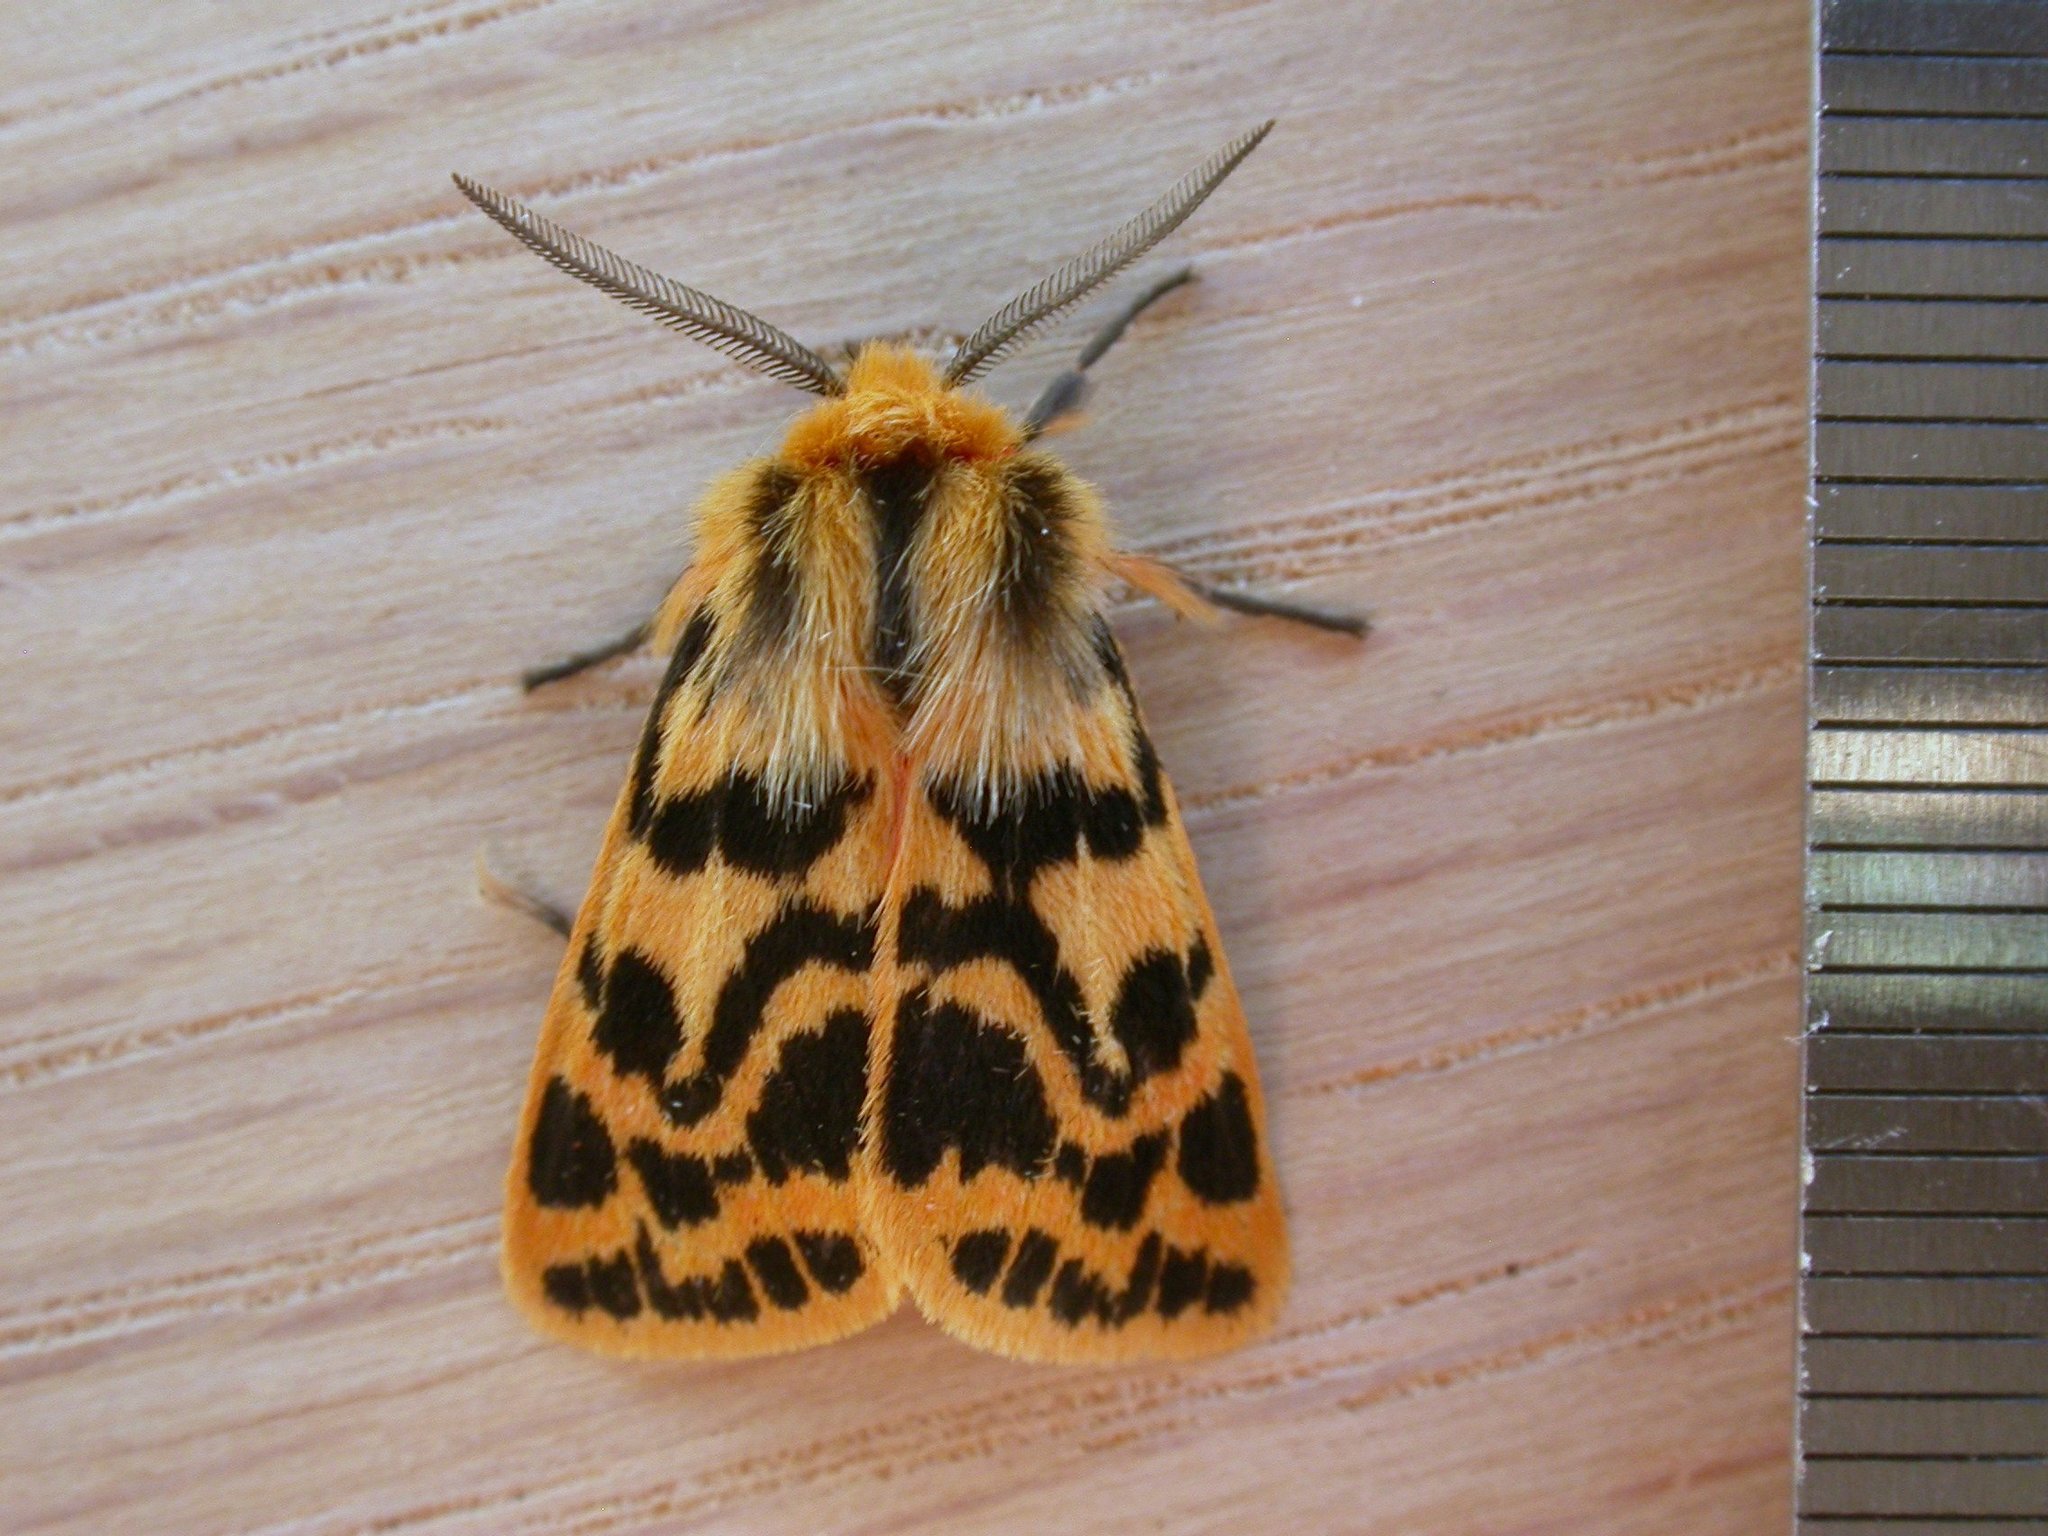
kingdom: Animalia
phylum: Arthropoda
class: Insecta
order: Lepidoptera
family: Erebidae
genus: Ardices
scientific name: Ardices curvata
